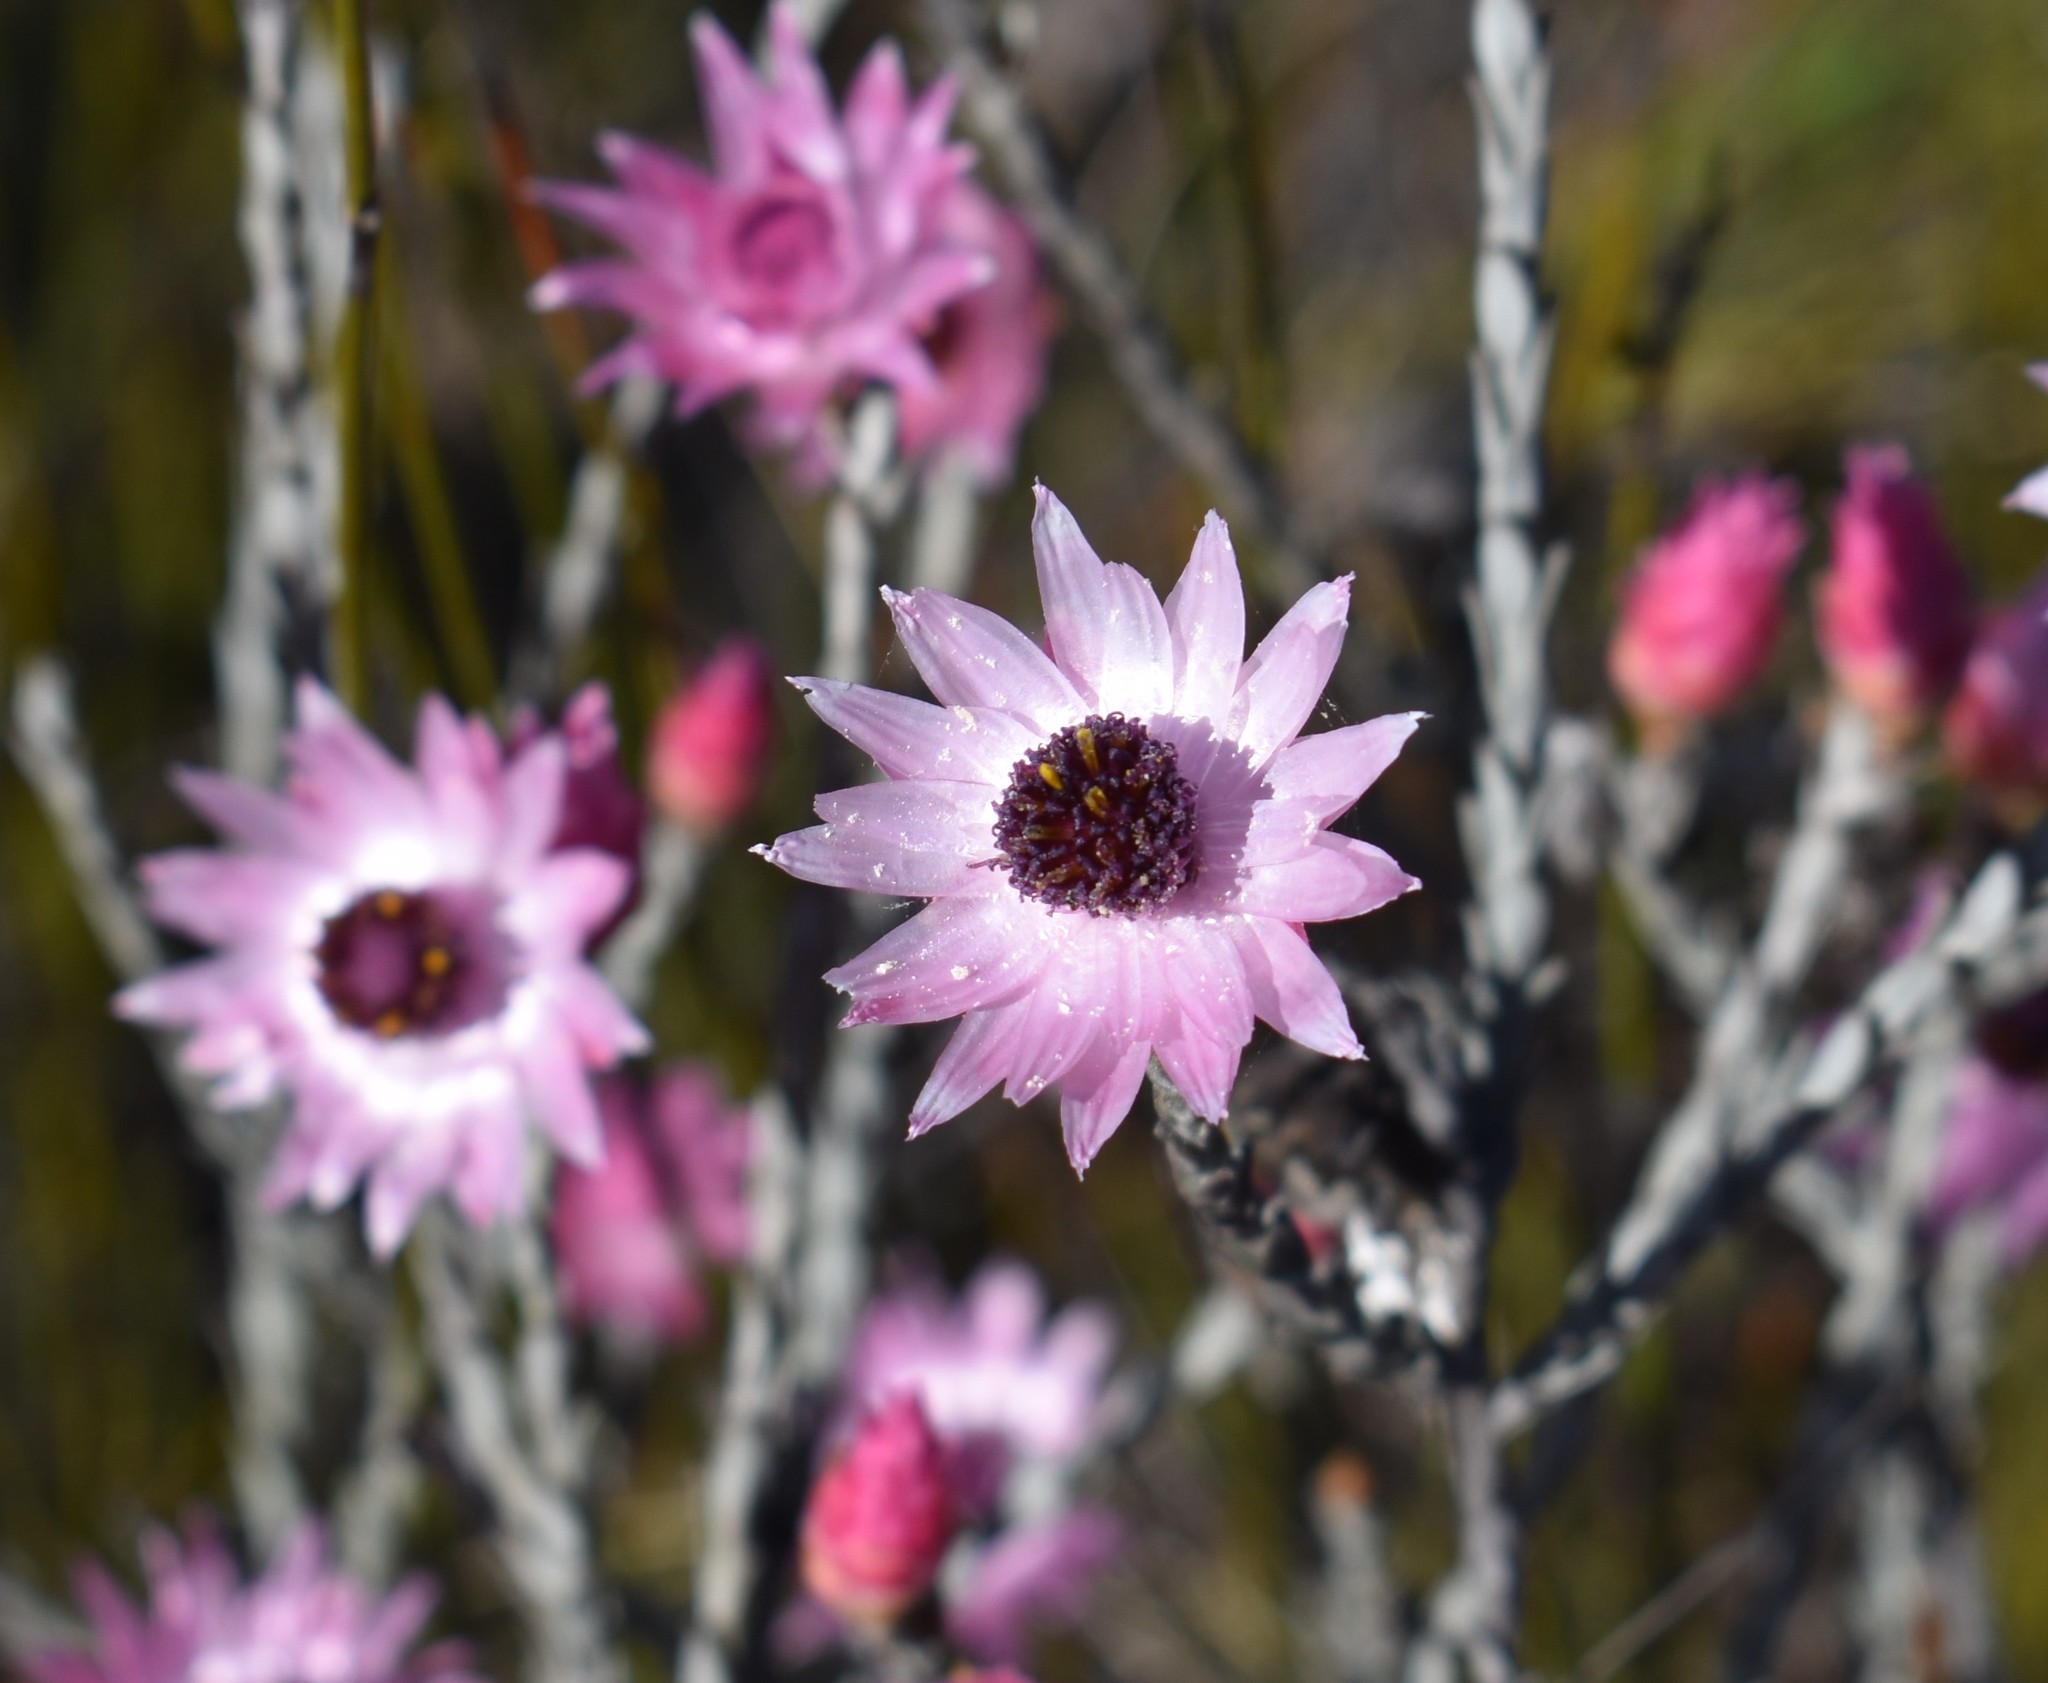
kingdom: Plantae
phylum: Tracheophyta
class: Magnoliopsida
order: Asterales
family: Asteraceae
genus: Syncarpha
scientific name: Syncarpha canescens
